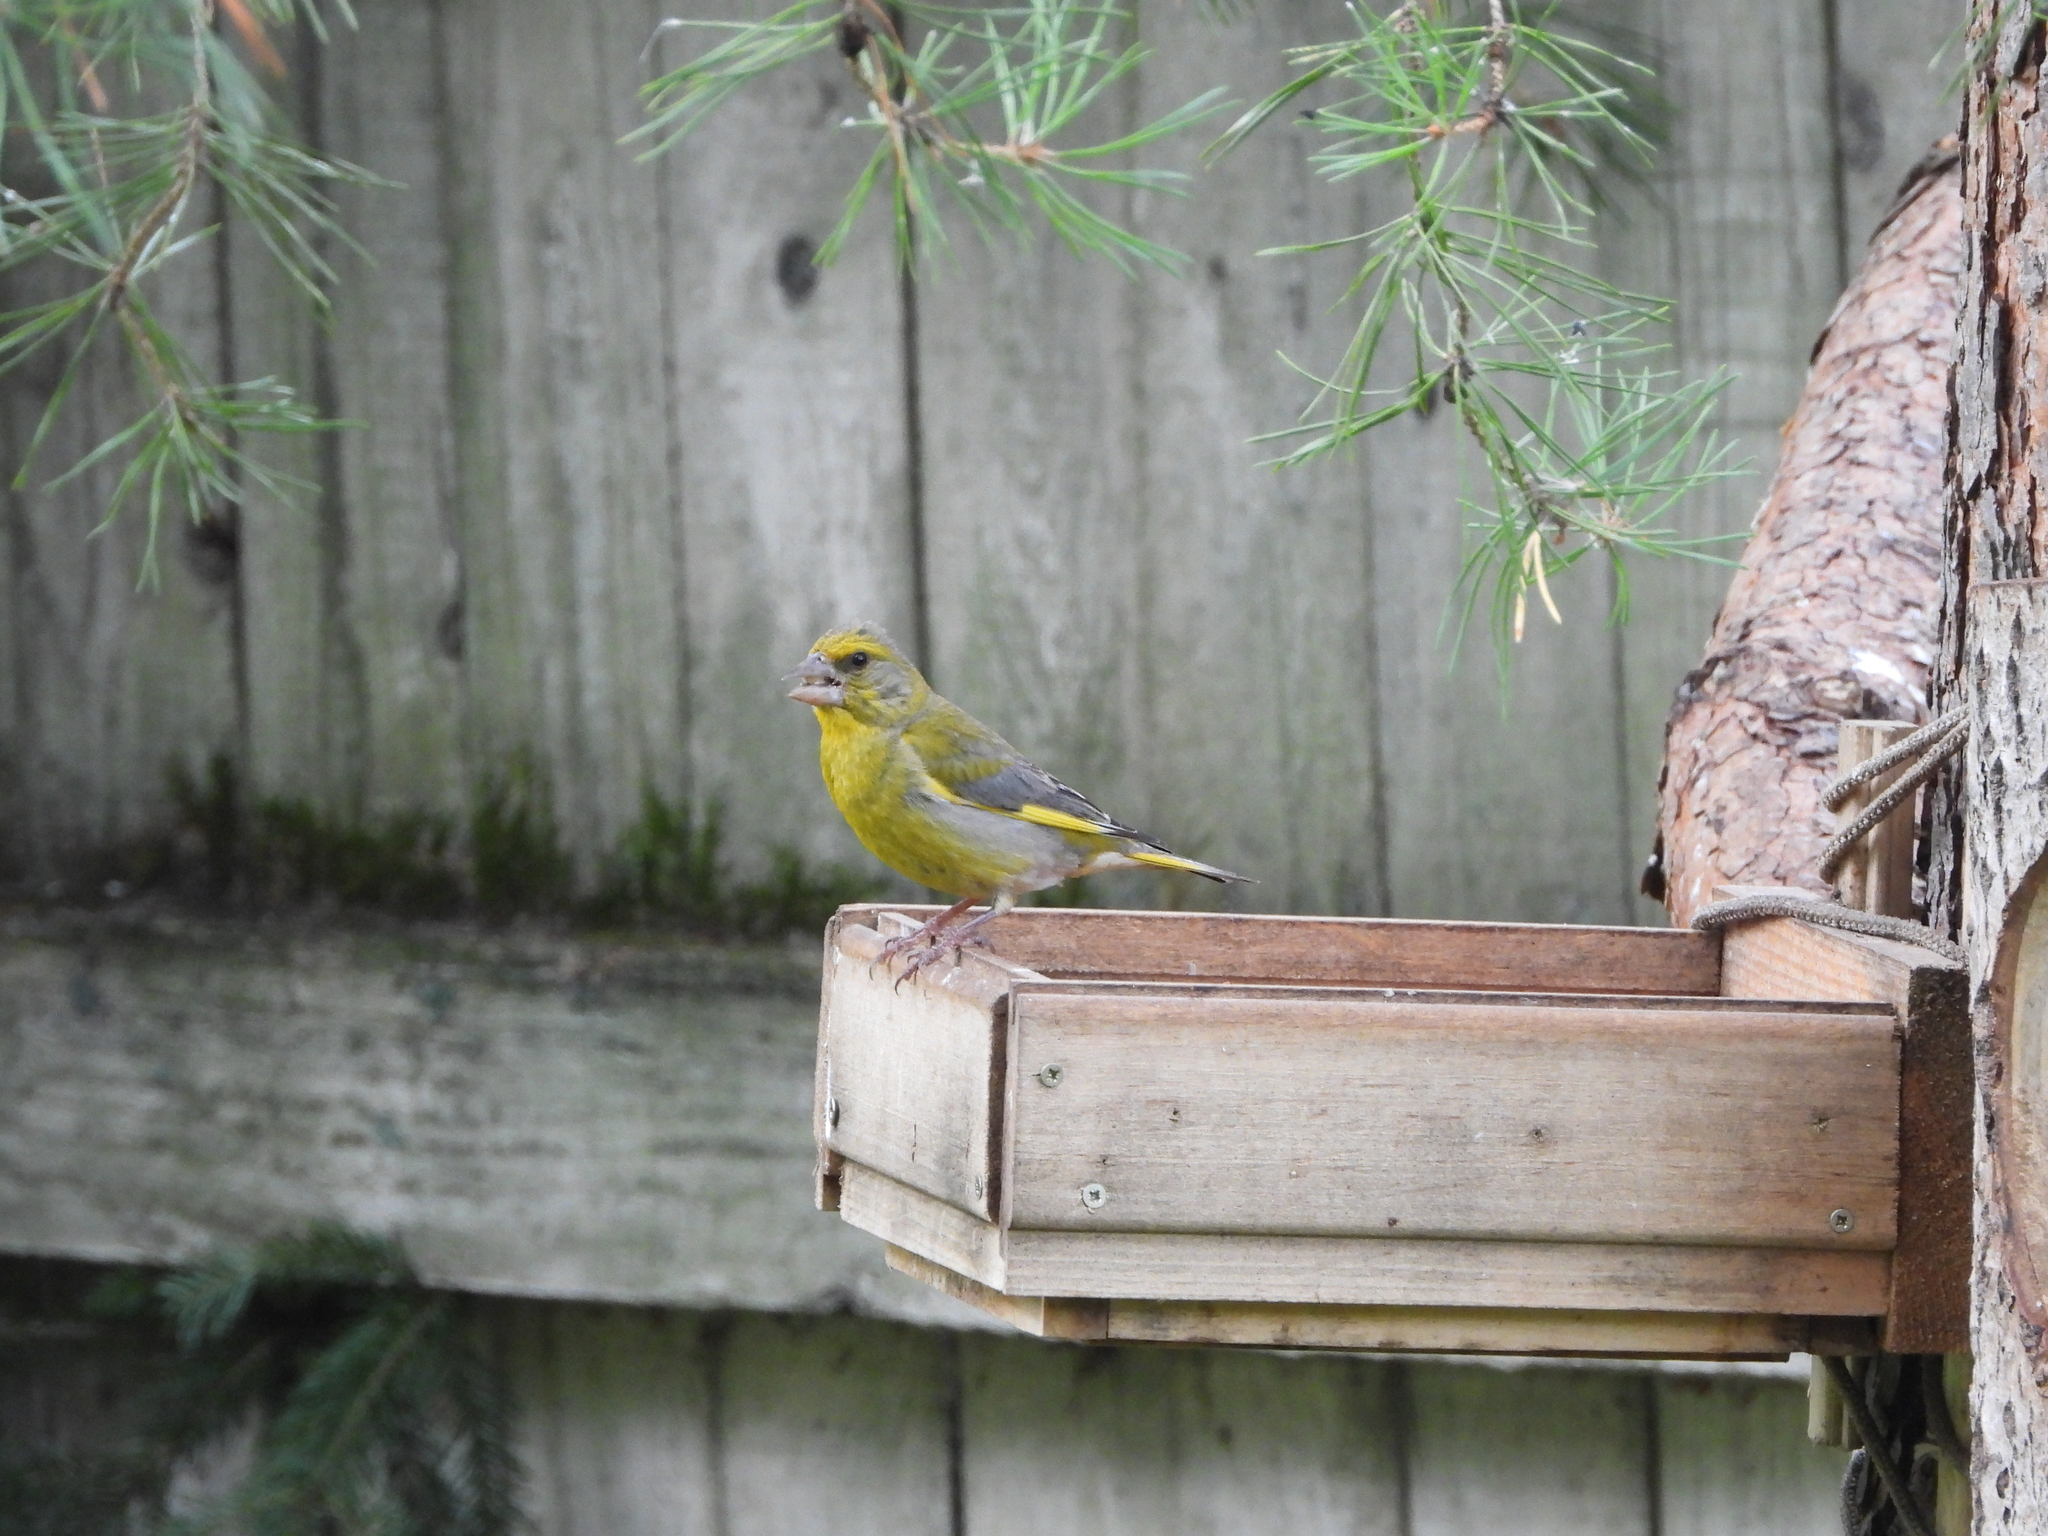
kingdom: Plantae
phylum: Tracheophyta
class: Liliopsida
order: Poales
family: Poaceae
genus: Chloris
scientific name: Chloris chloris
